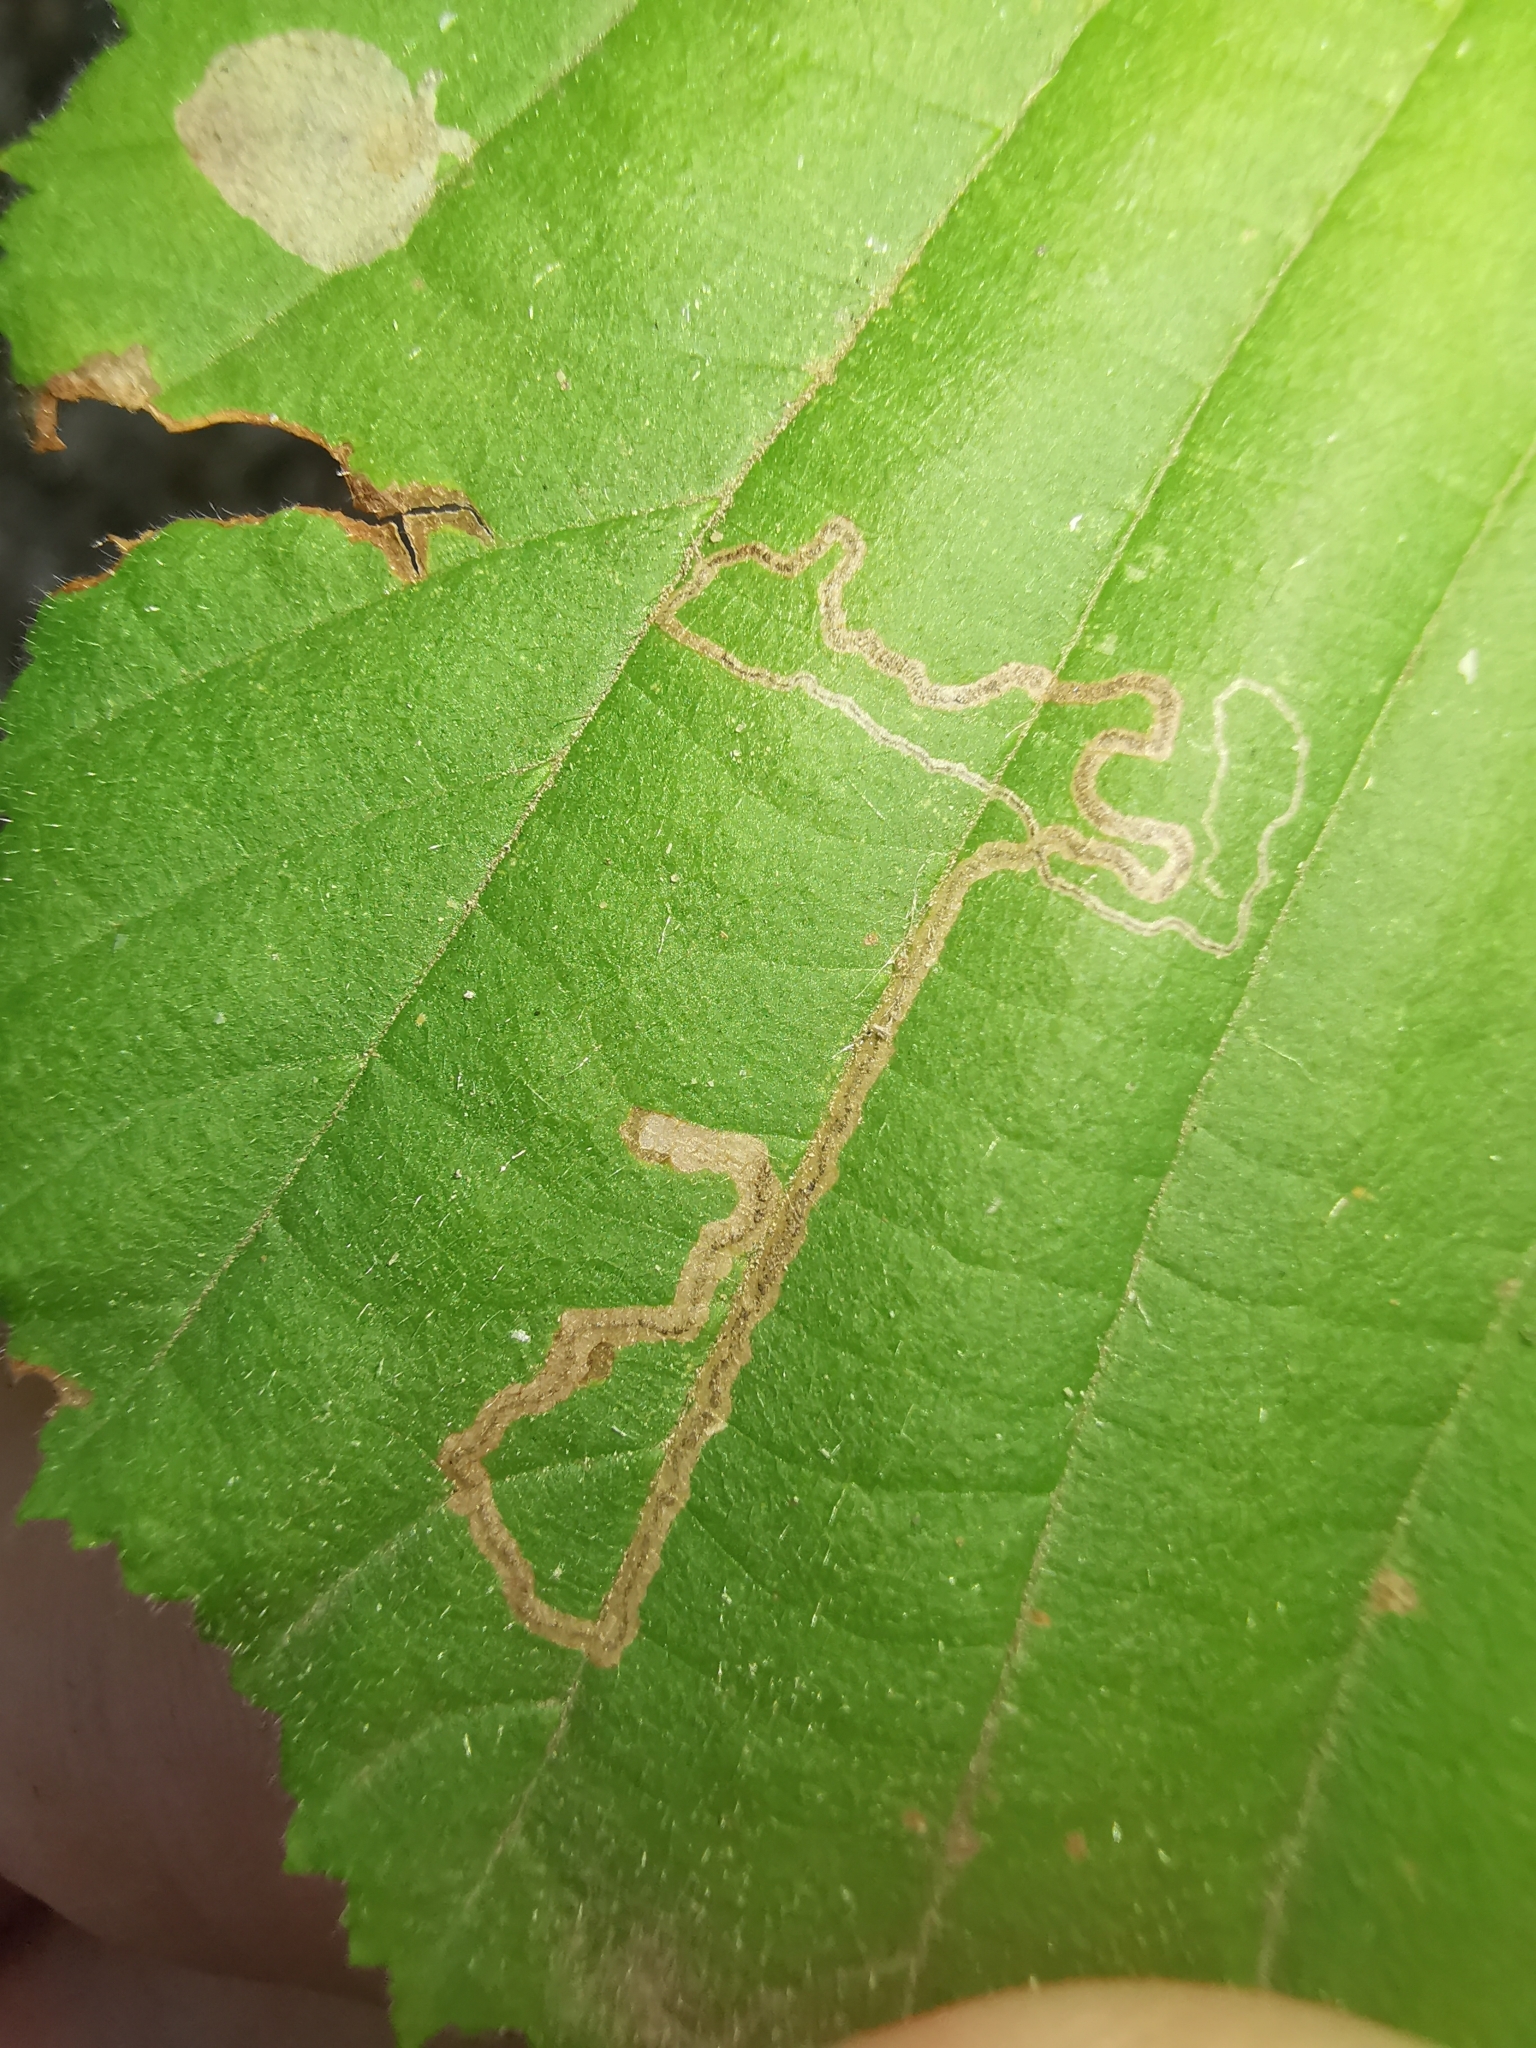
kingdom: Animalia
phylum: Arthropoda
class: Insecta
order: Lepidoptera
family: Nepticulidae
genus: Stigmella
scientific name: Stigmella floslactella
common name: Coarse hazel pigmy
